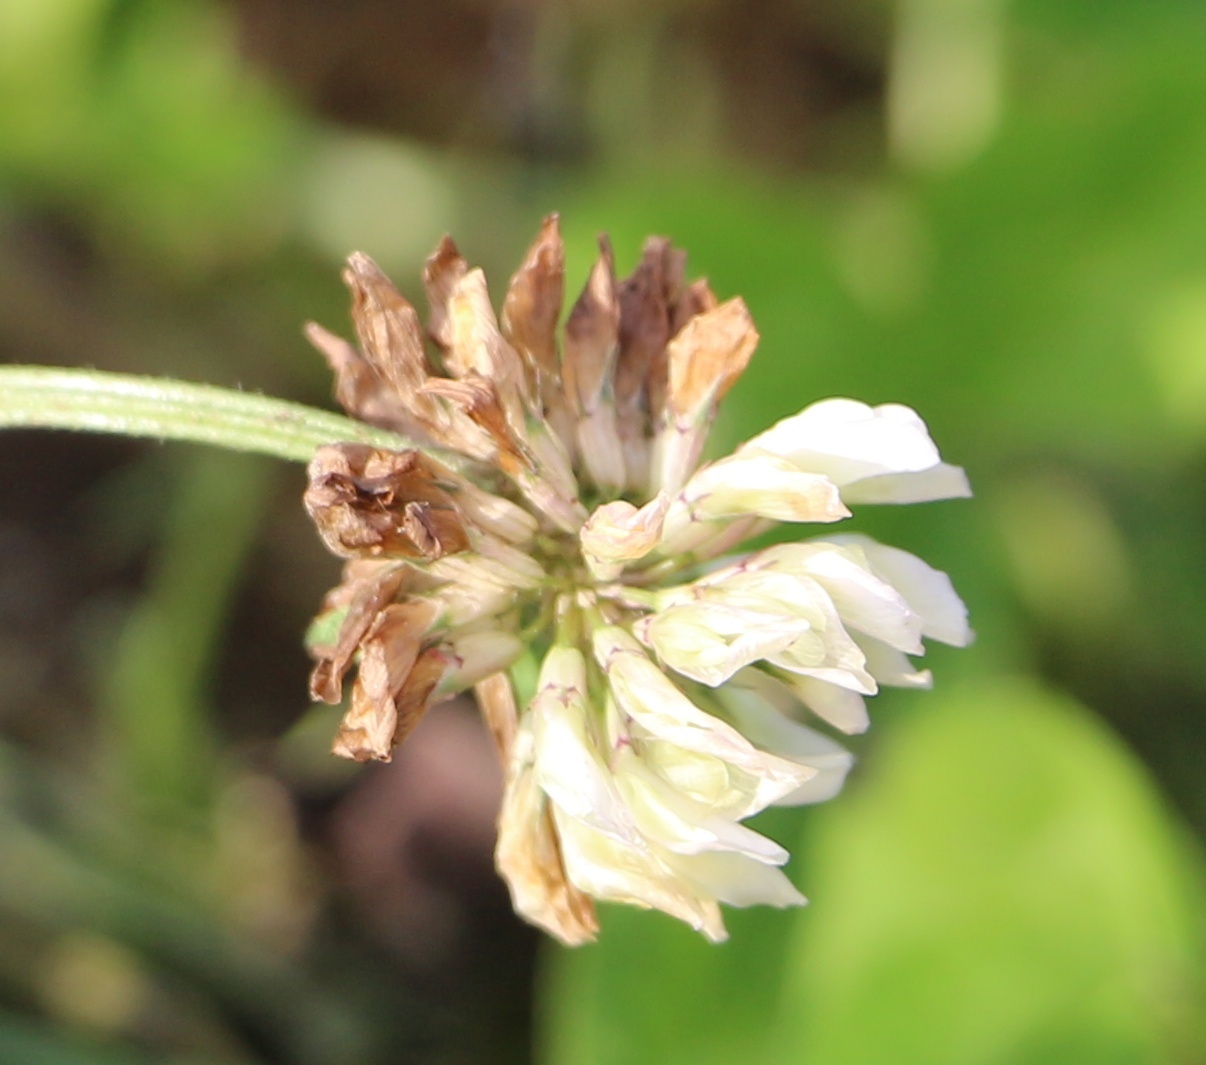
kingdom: Plantae
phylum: Tracheophyta
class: Magnoliopsida
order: Fabales
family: Fabaceae
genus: Trifolium
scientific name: Trifolium repens
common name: White clover
